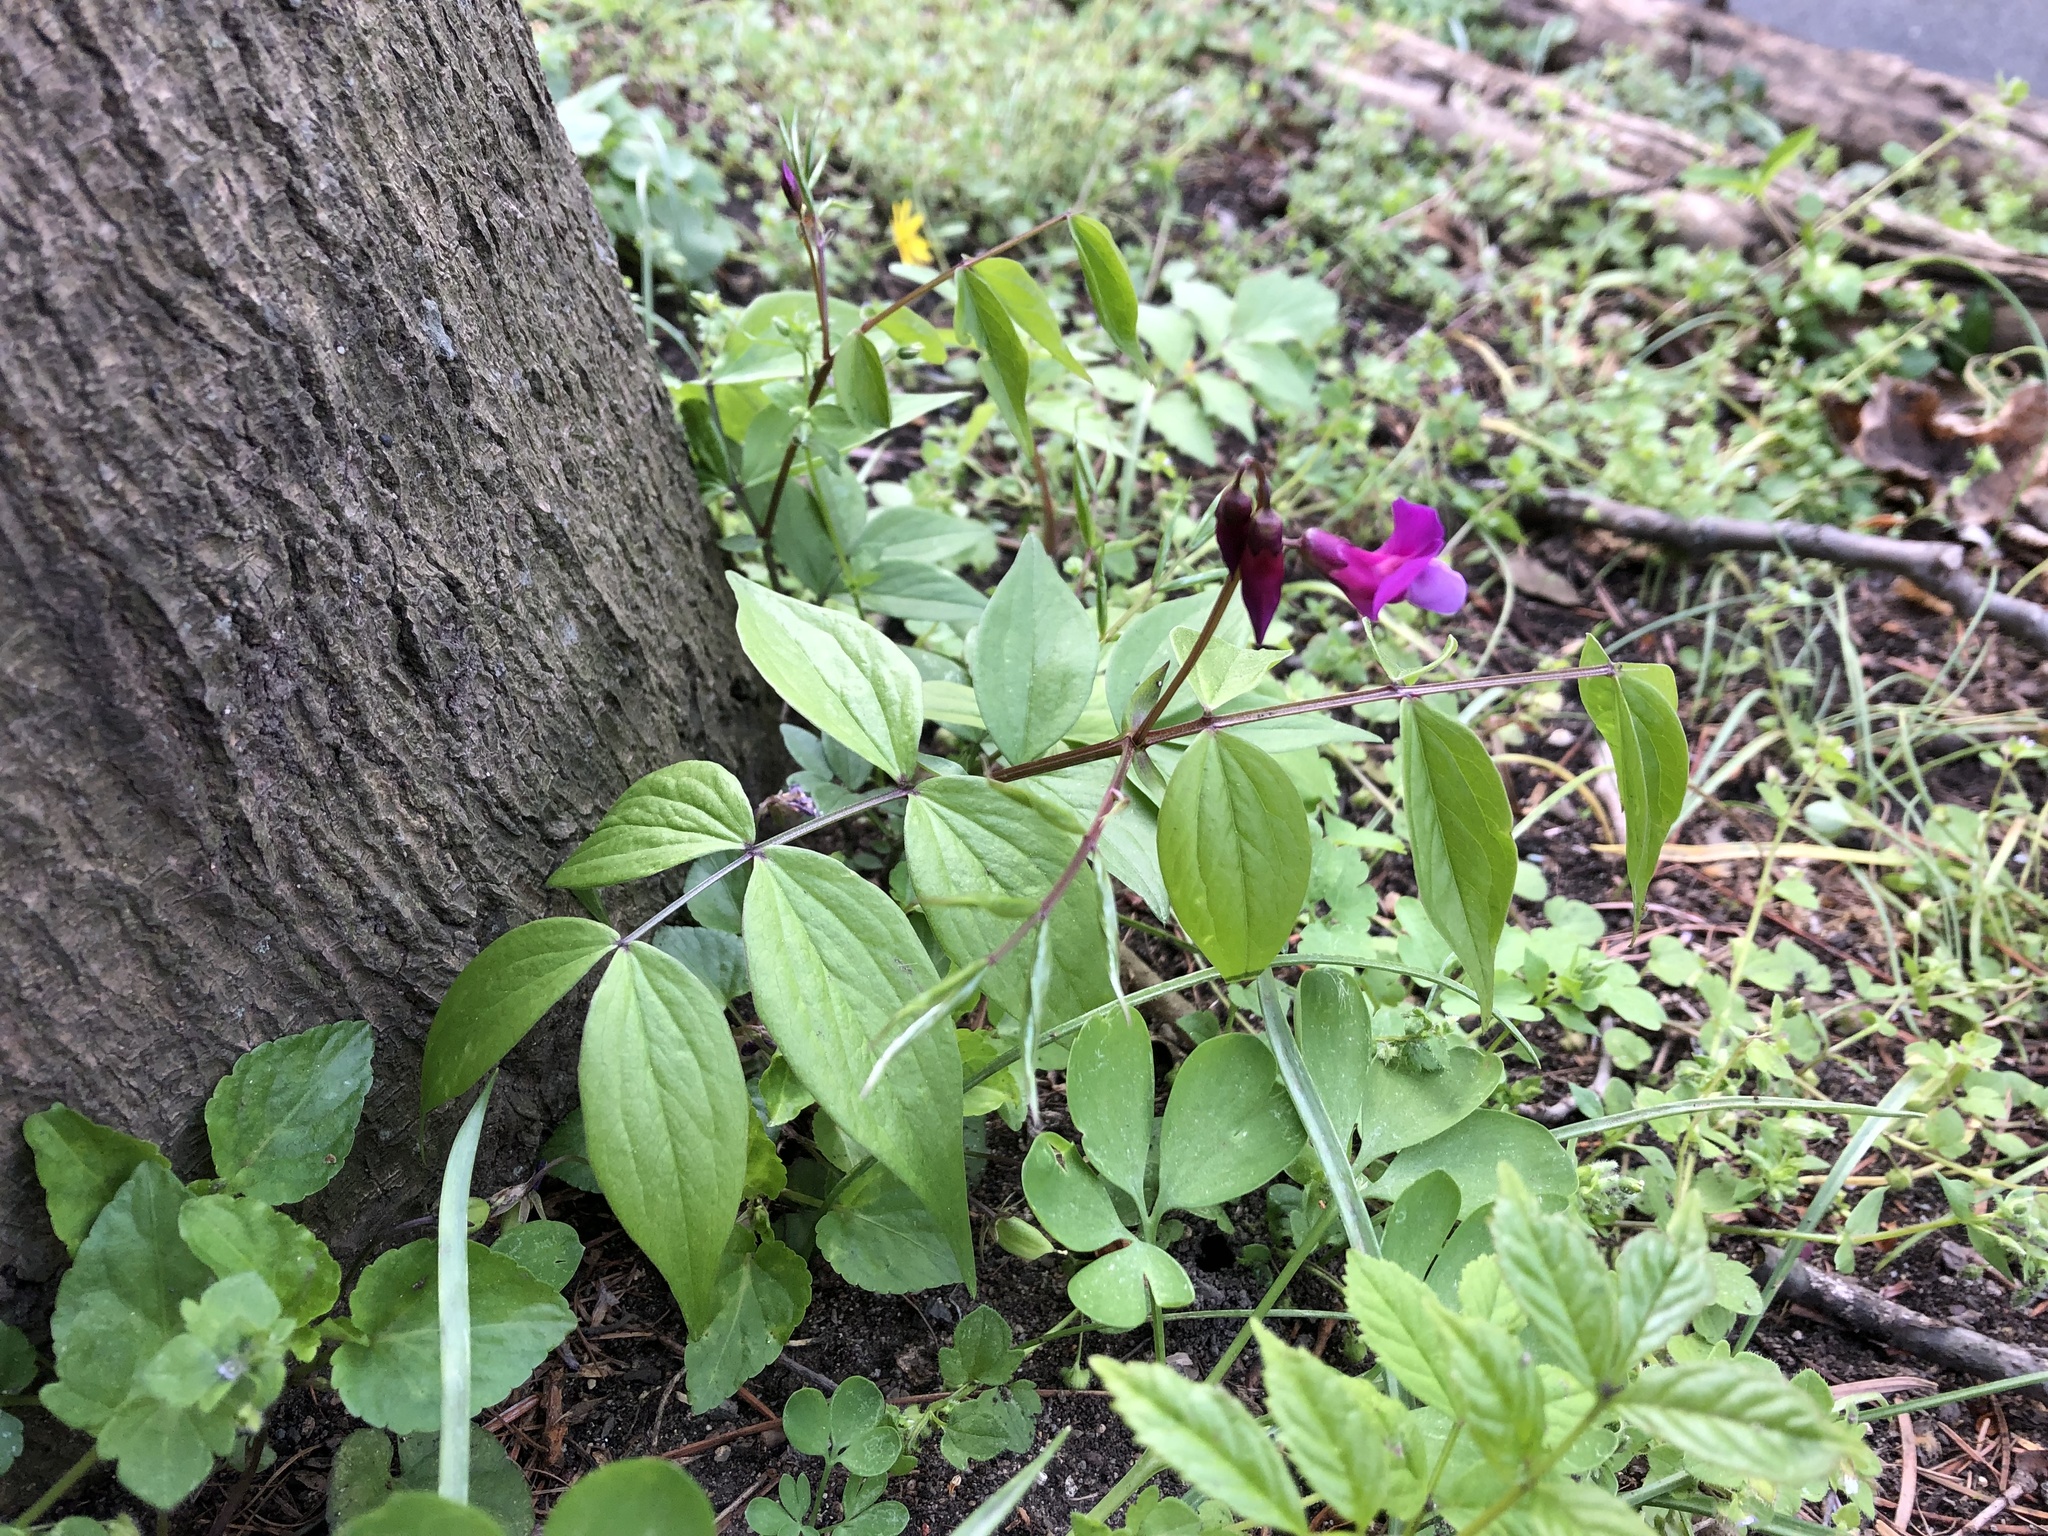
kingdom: Plantae
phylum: Tracheophyta
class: Magnoliopsida
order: Fabales
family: Fabaceae
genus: Lathyrus
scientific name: Lathyrus vernus
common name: Spring pea
